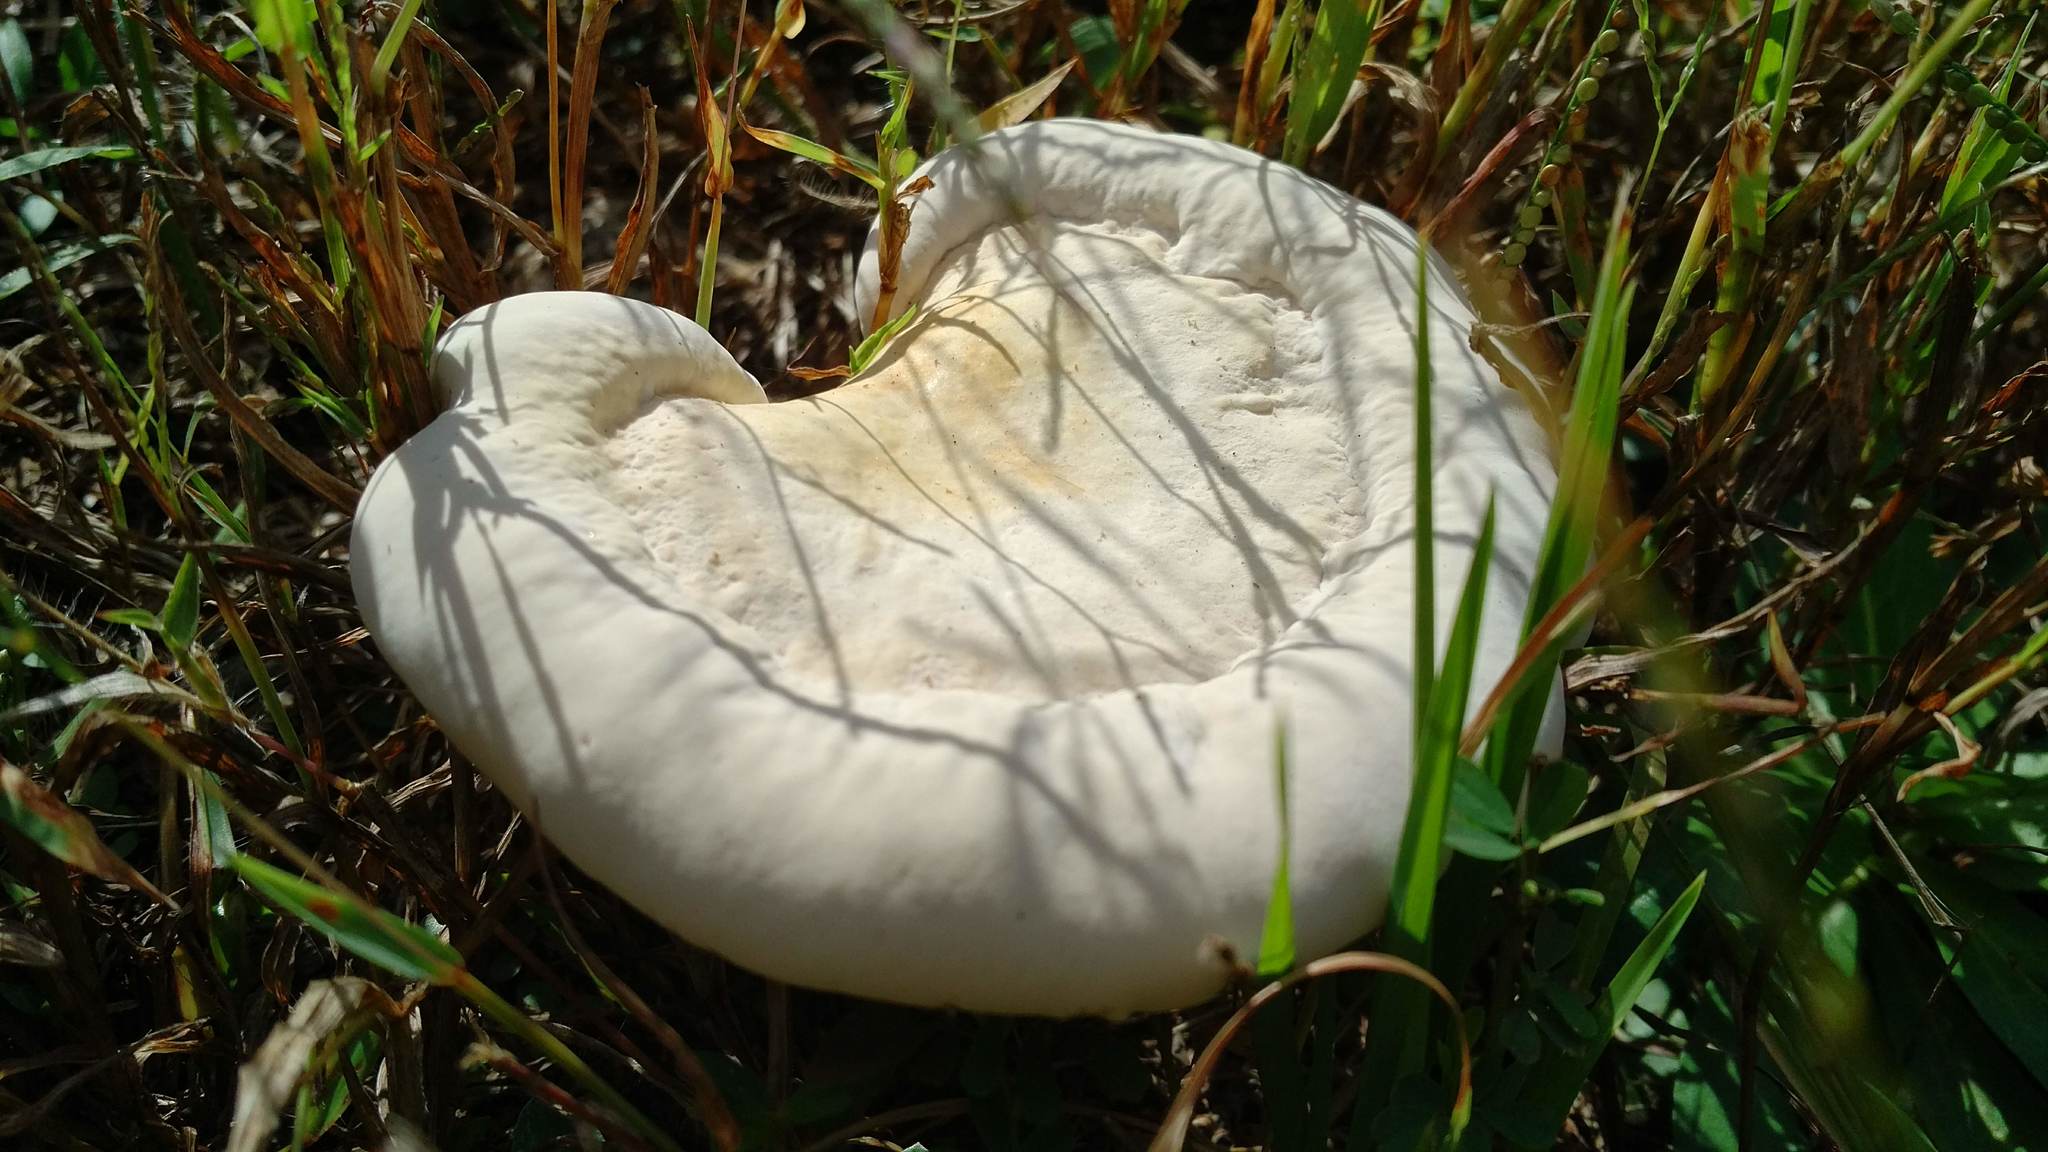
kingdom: Fungi
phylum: Basidiomycota
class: Agaricomycetes
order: Polyporales
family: Polyporaceae
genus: Ganoderma
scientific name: Ganoderma curtisii
